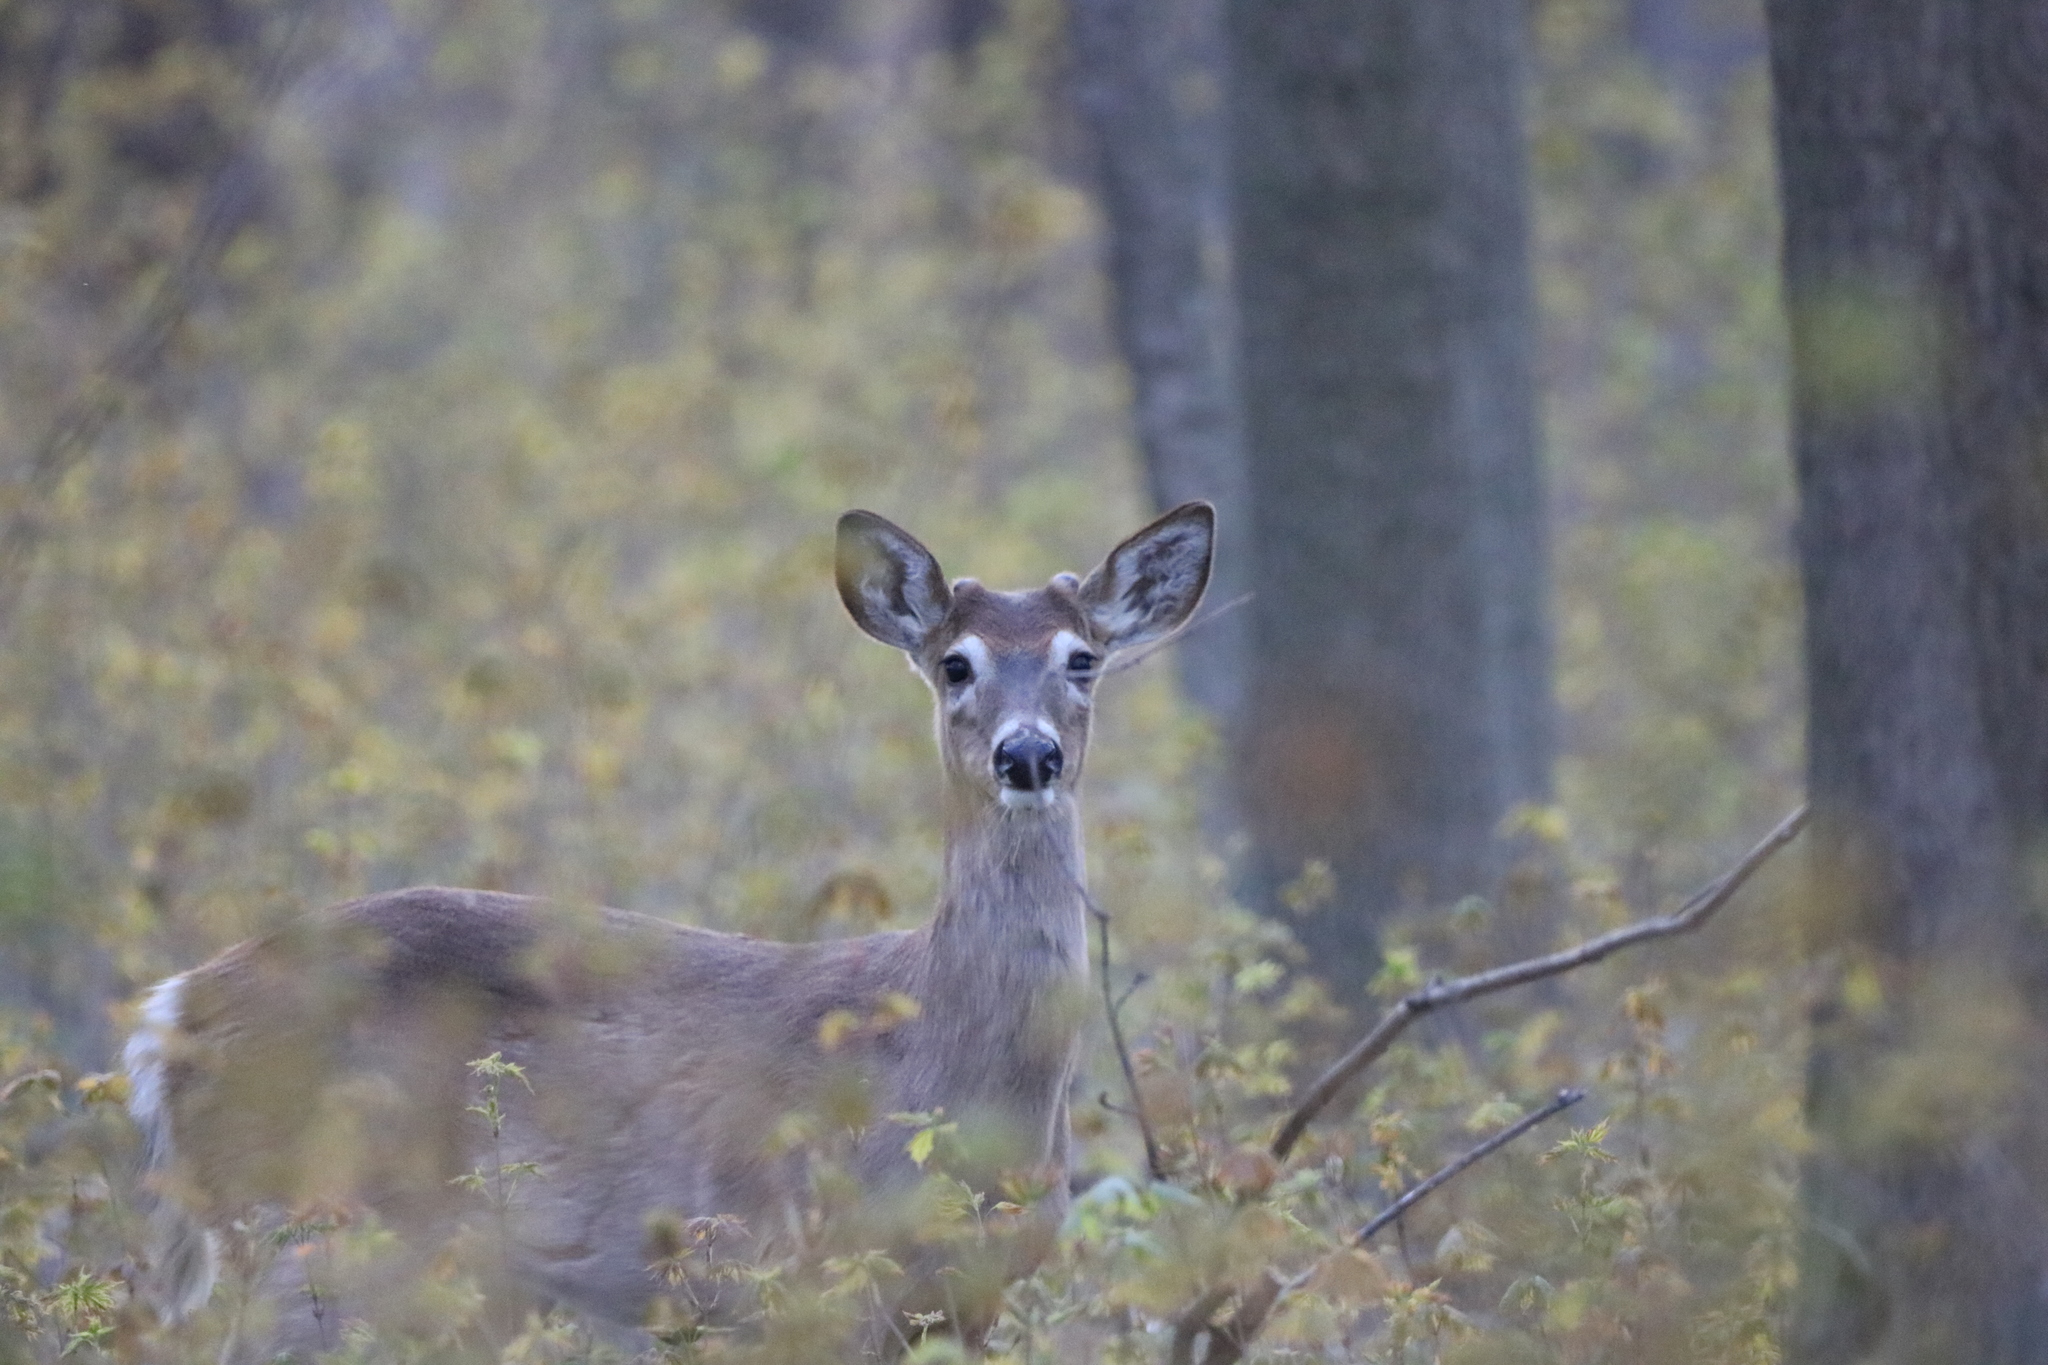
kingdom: Animalia
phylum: Chordata
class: Mammalia
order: Artiodactyla
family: Cervidae
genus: Odocoileus
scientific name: Odocoileus virginianus
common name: White-tailed deer
